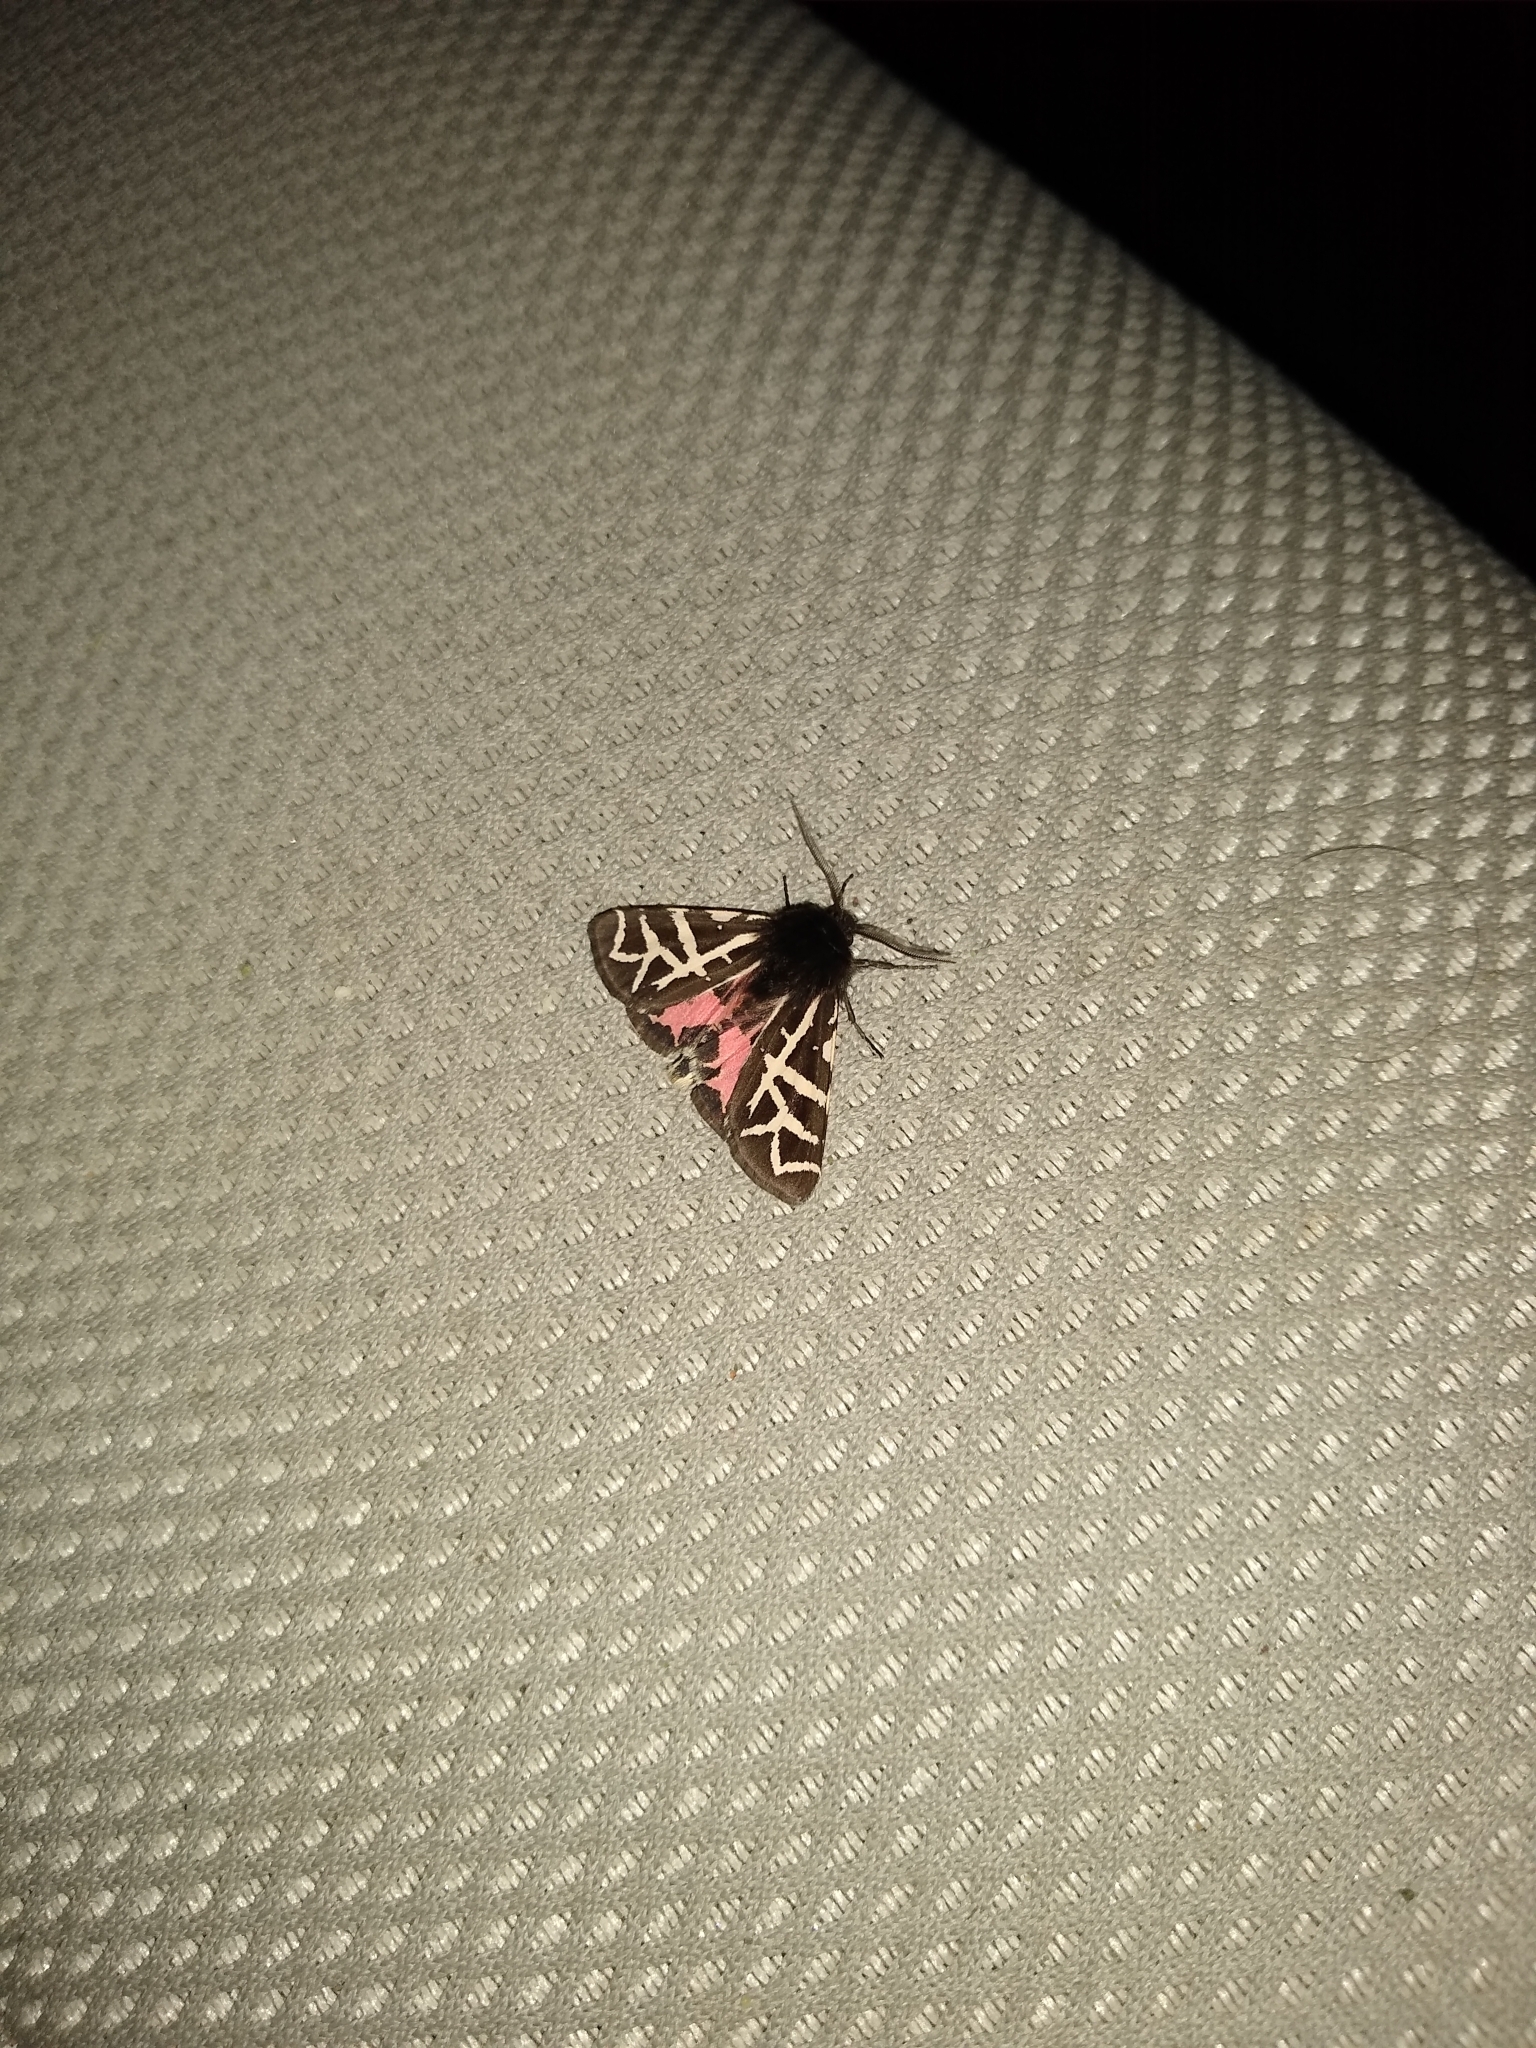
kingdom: Animalia
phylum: Arthropoda
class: Insecta
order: Lepidoptera
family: Erebidae
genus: Apantesis
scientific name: Apantesis
